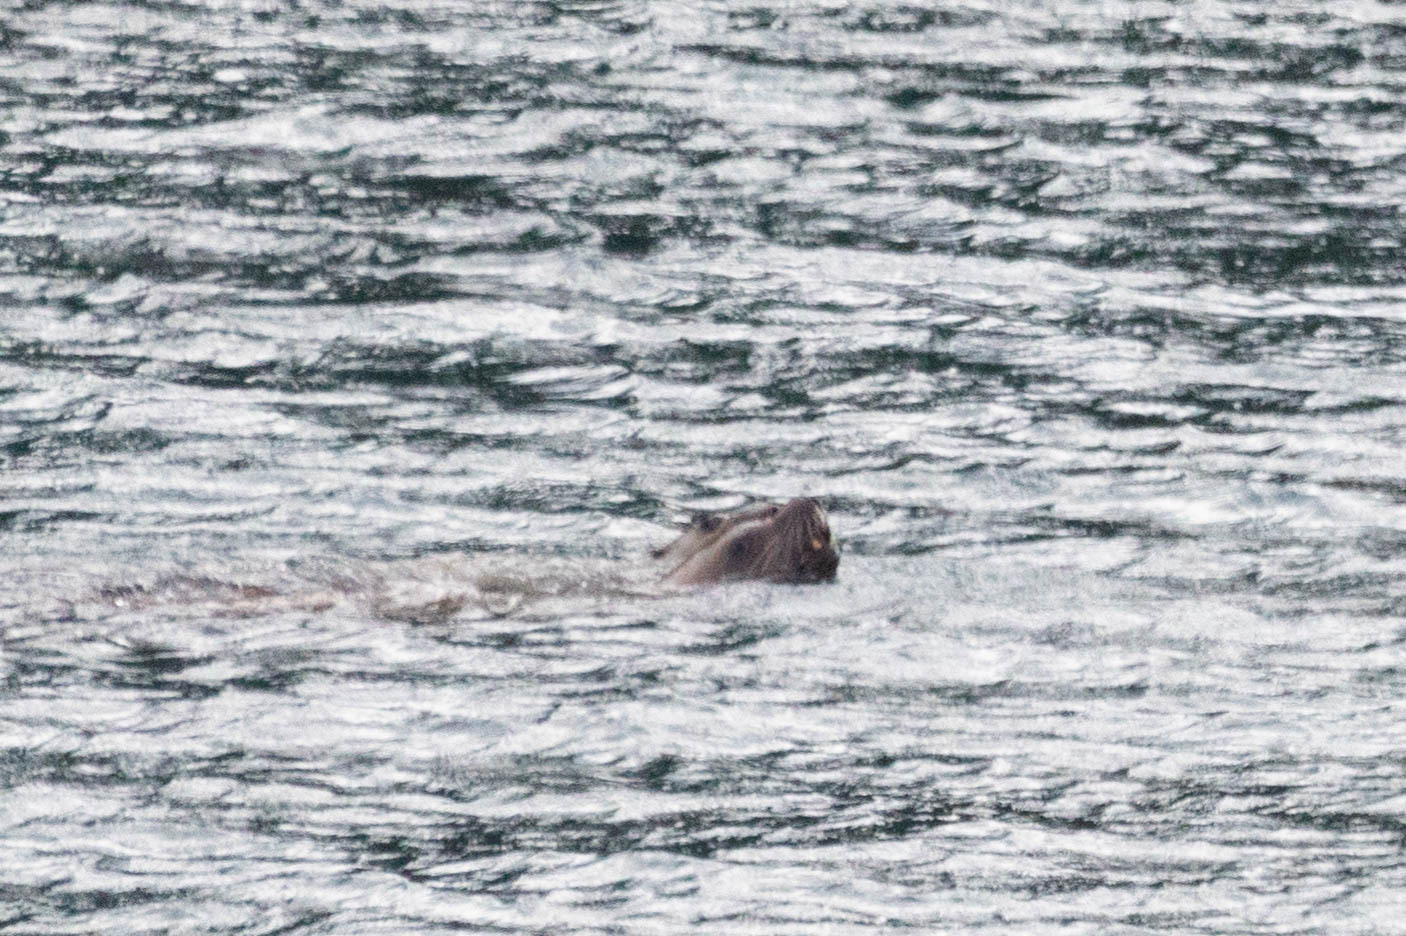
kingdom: Animalia
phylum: Chordata
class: Mammalia
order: Carnivora
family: Otariidae
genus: Eumetopias
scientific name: Eumetopias jubatus
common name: Steller sea lion
